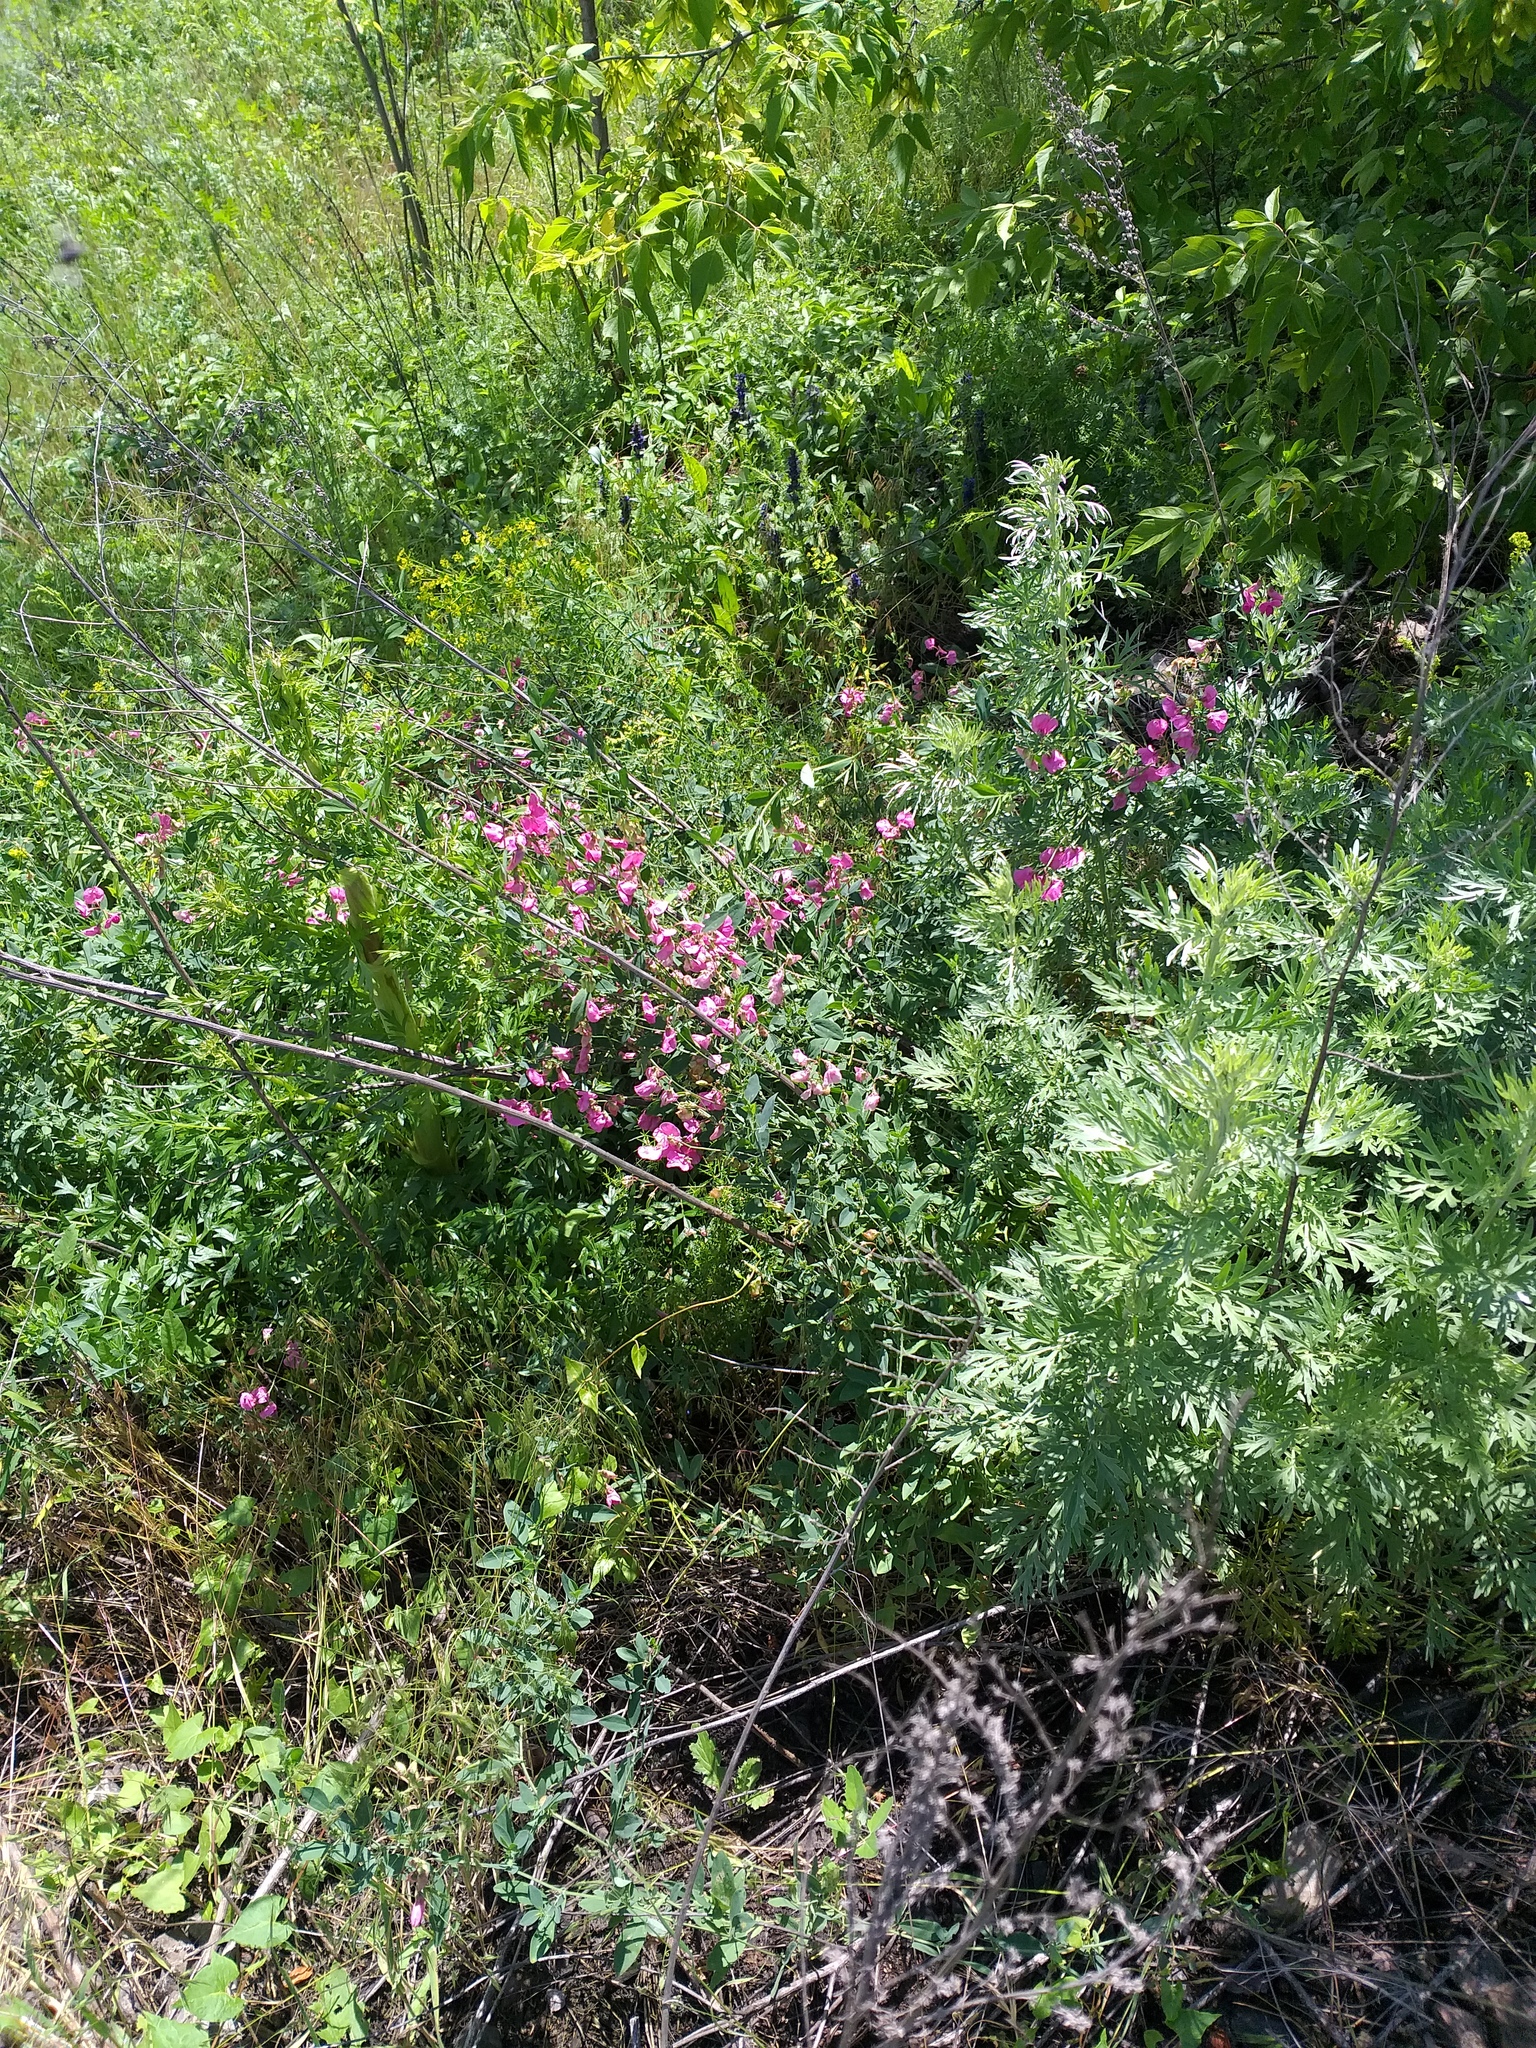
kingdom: Plantae
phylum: Tracheophyta
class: Magnoliopsida
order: Fabales
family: Fabaceae
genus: Lathyrus
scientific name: Lathyrus tuberosus
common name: Tuberous pea
